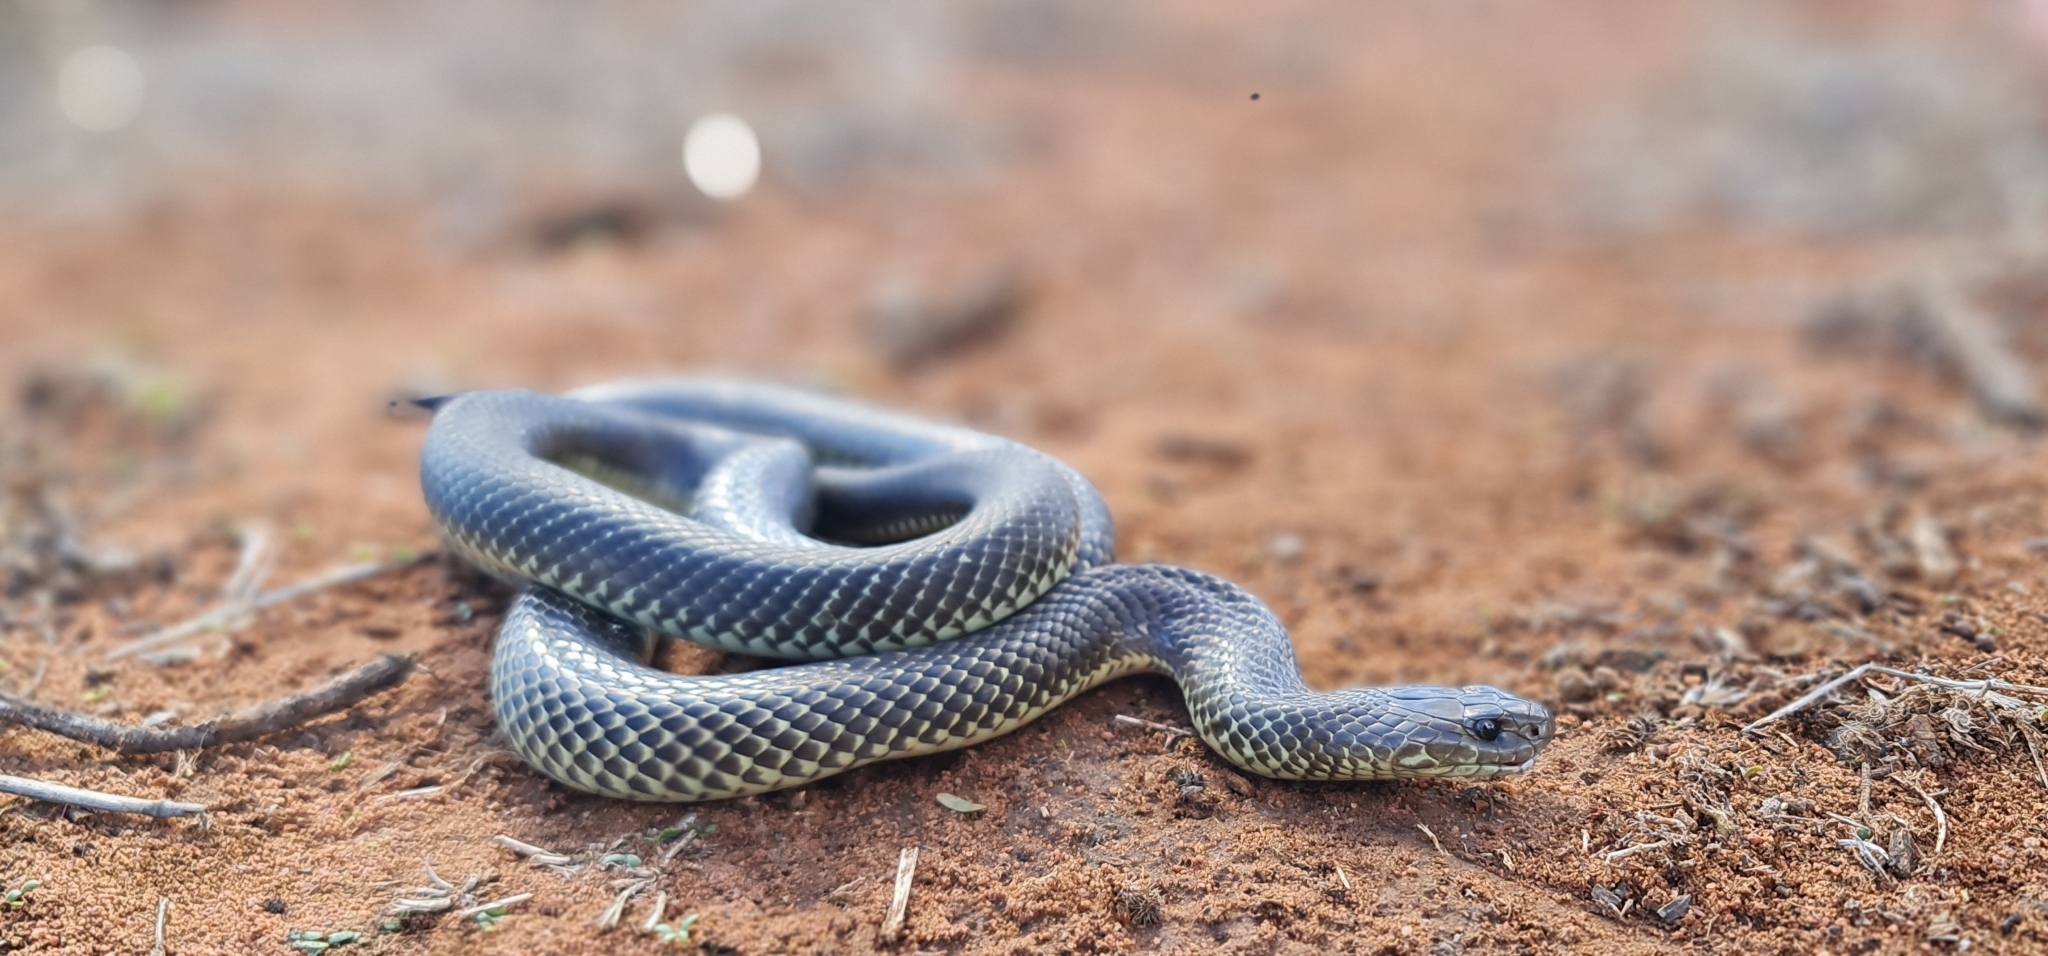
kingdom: Animalia
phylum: Chordata
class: Squamata
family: Elapidae
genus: Pseudechis
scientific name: Pseudechis australis
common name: King brown snake
